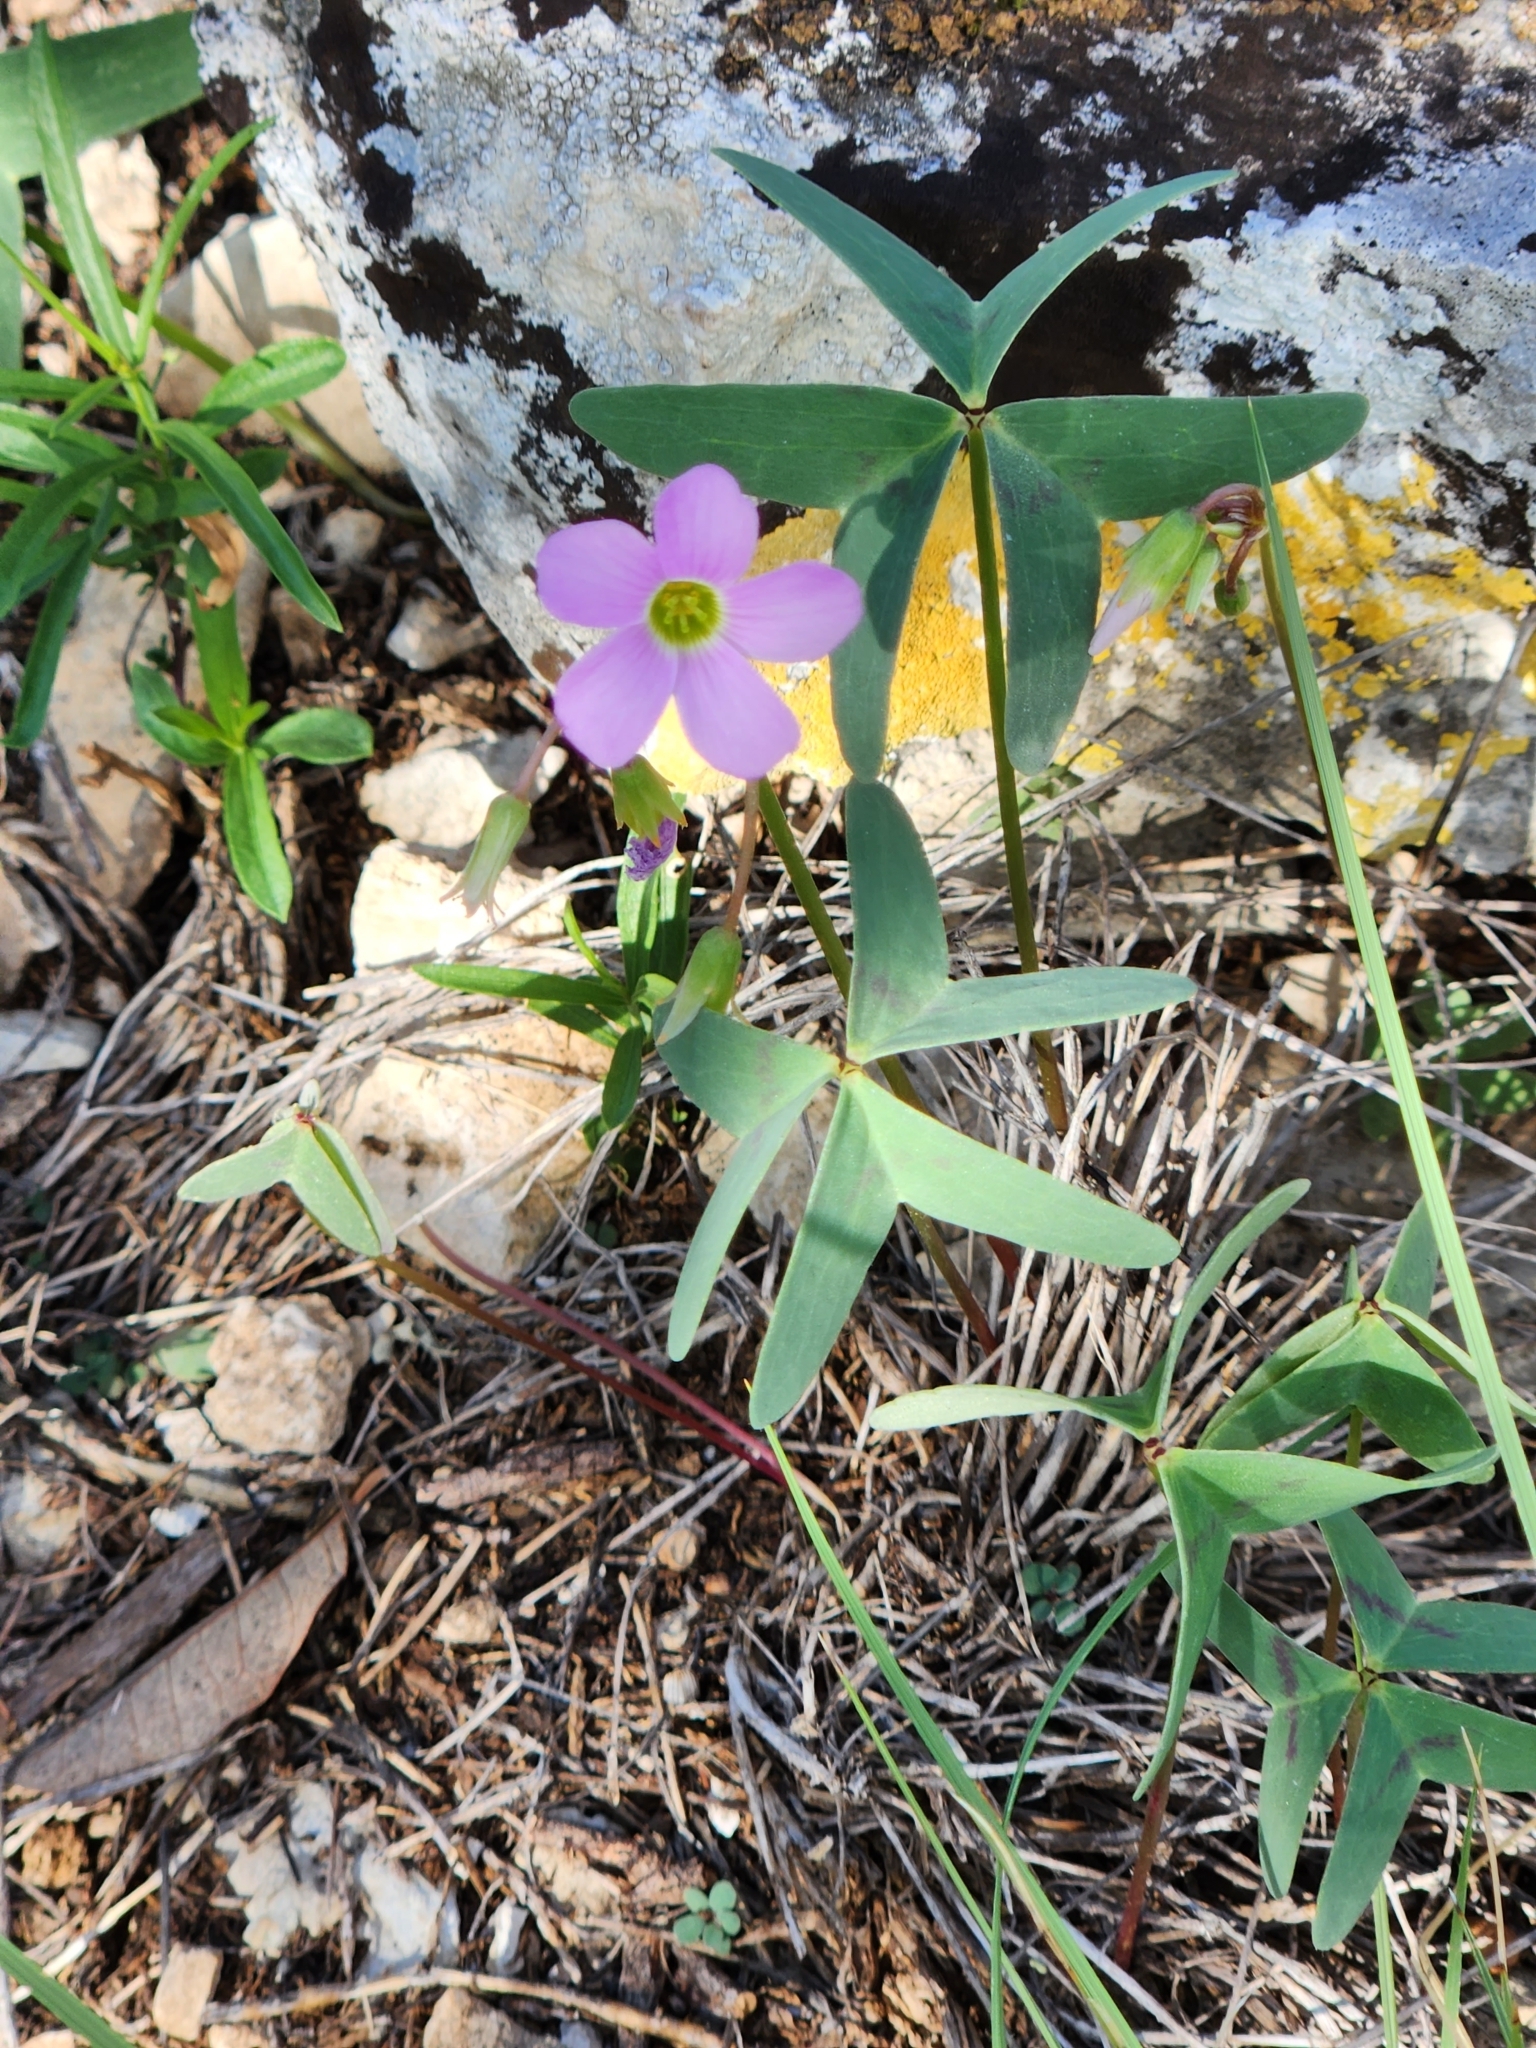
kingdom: Plantae
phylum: Tracheophyta
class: Magnoliopsida
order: Oxalidales
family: Oxalidaceae
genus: Oxalis
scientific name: Oxalis drummondii
